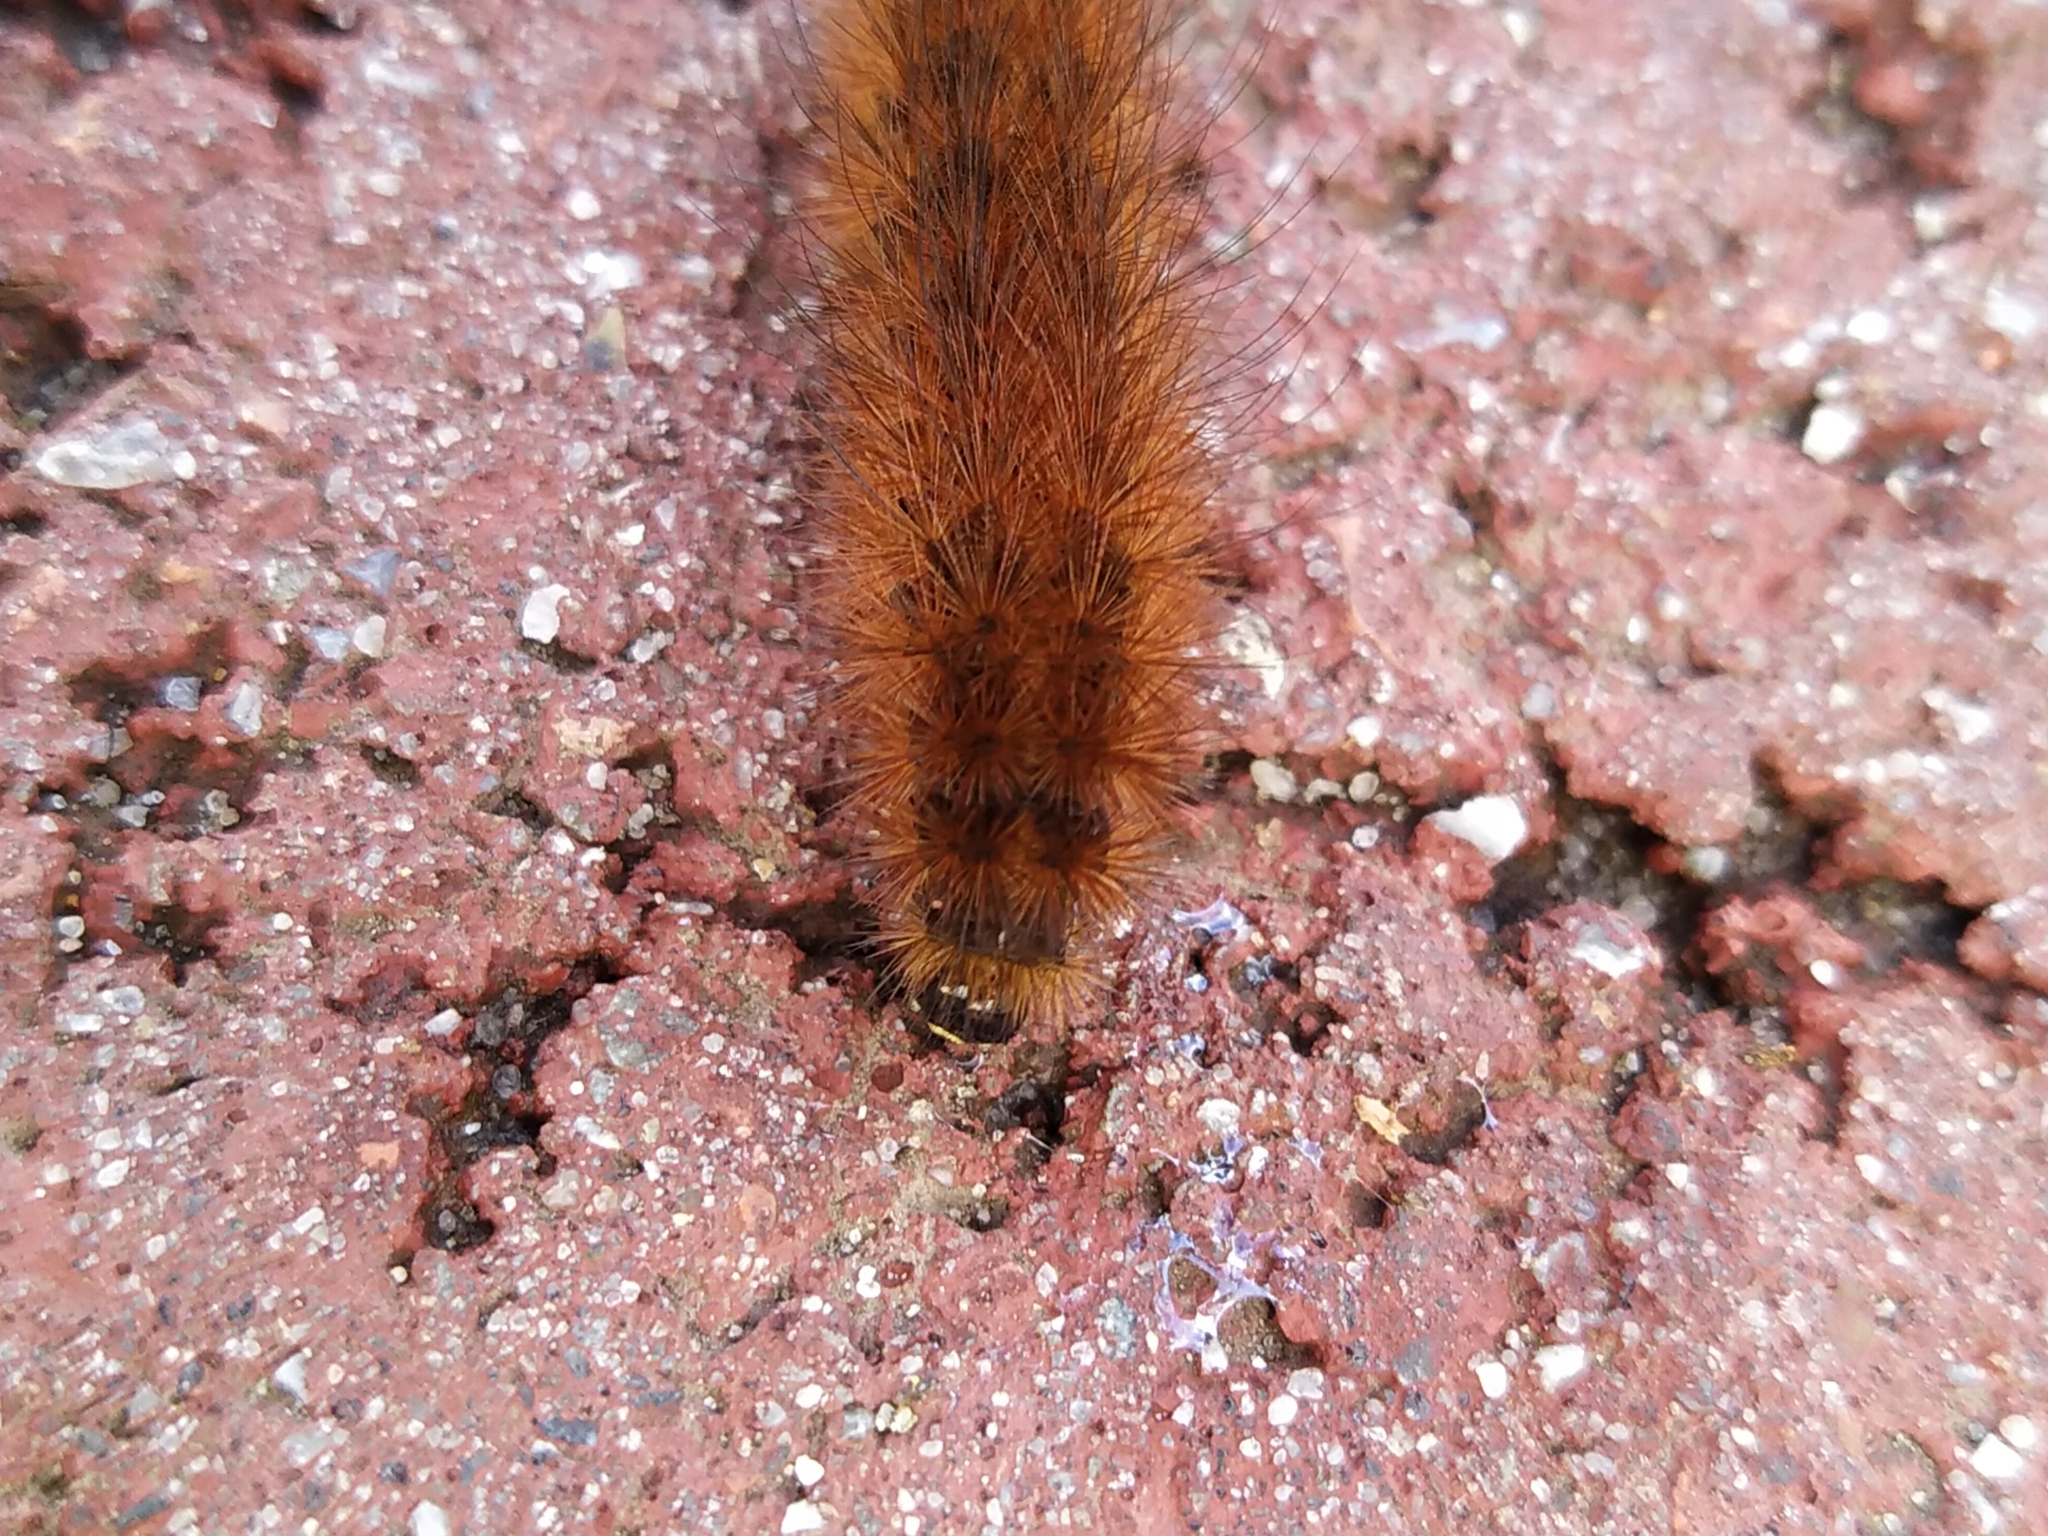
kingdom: Animalia
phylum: Arthropoda
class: Insecta
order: Lepidoptera
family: Erebidae
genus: Phragmatobia
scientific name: Phragmatobia fuliginosa
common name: Ruby tiger
